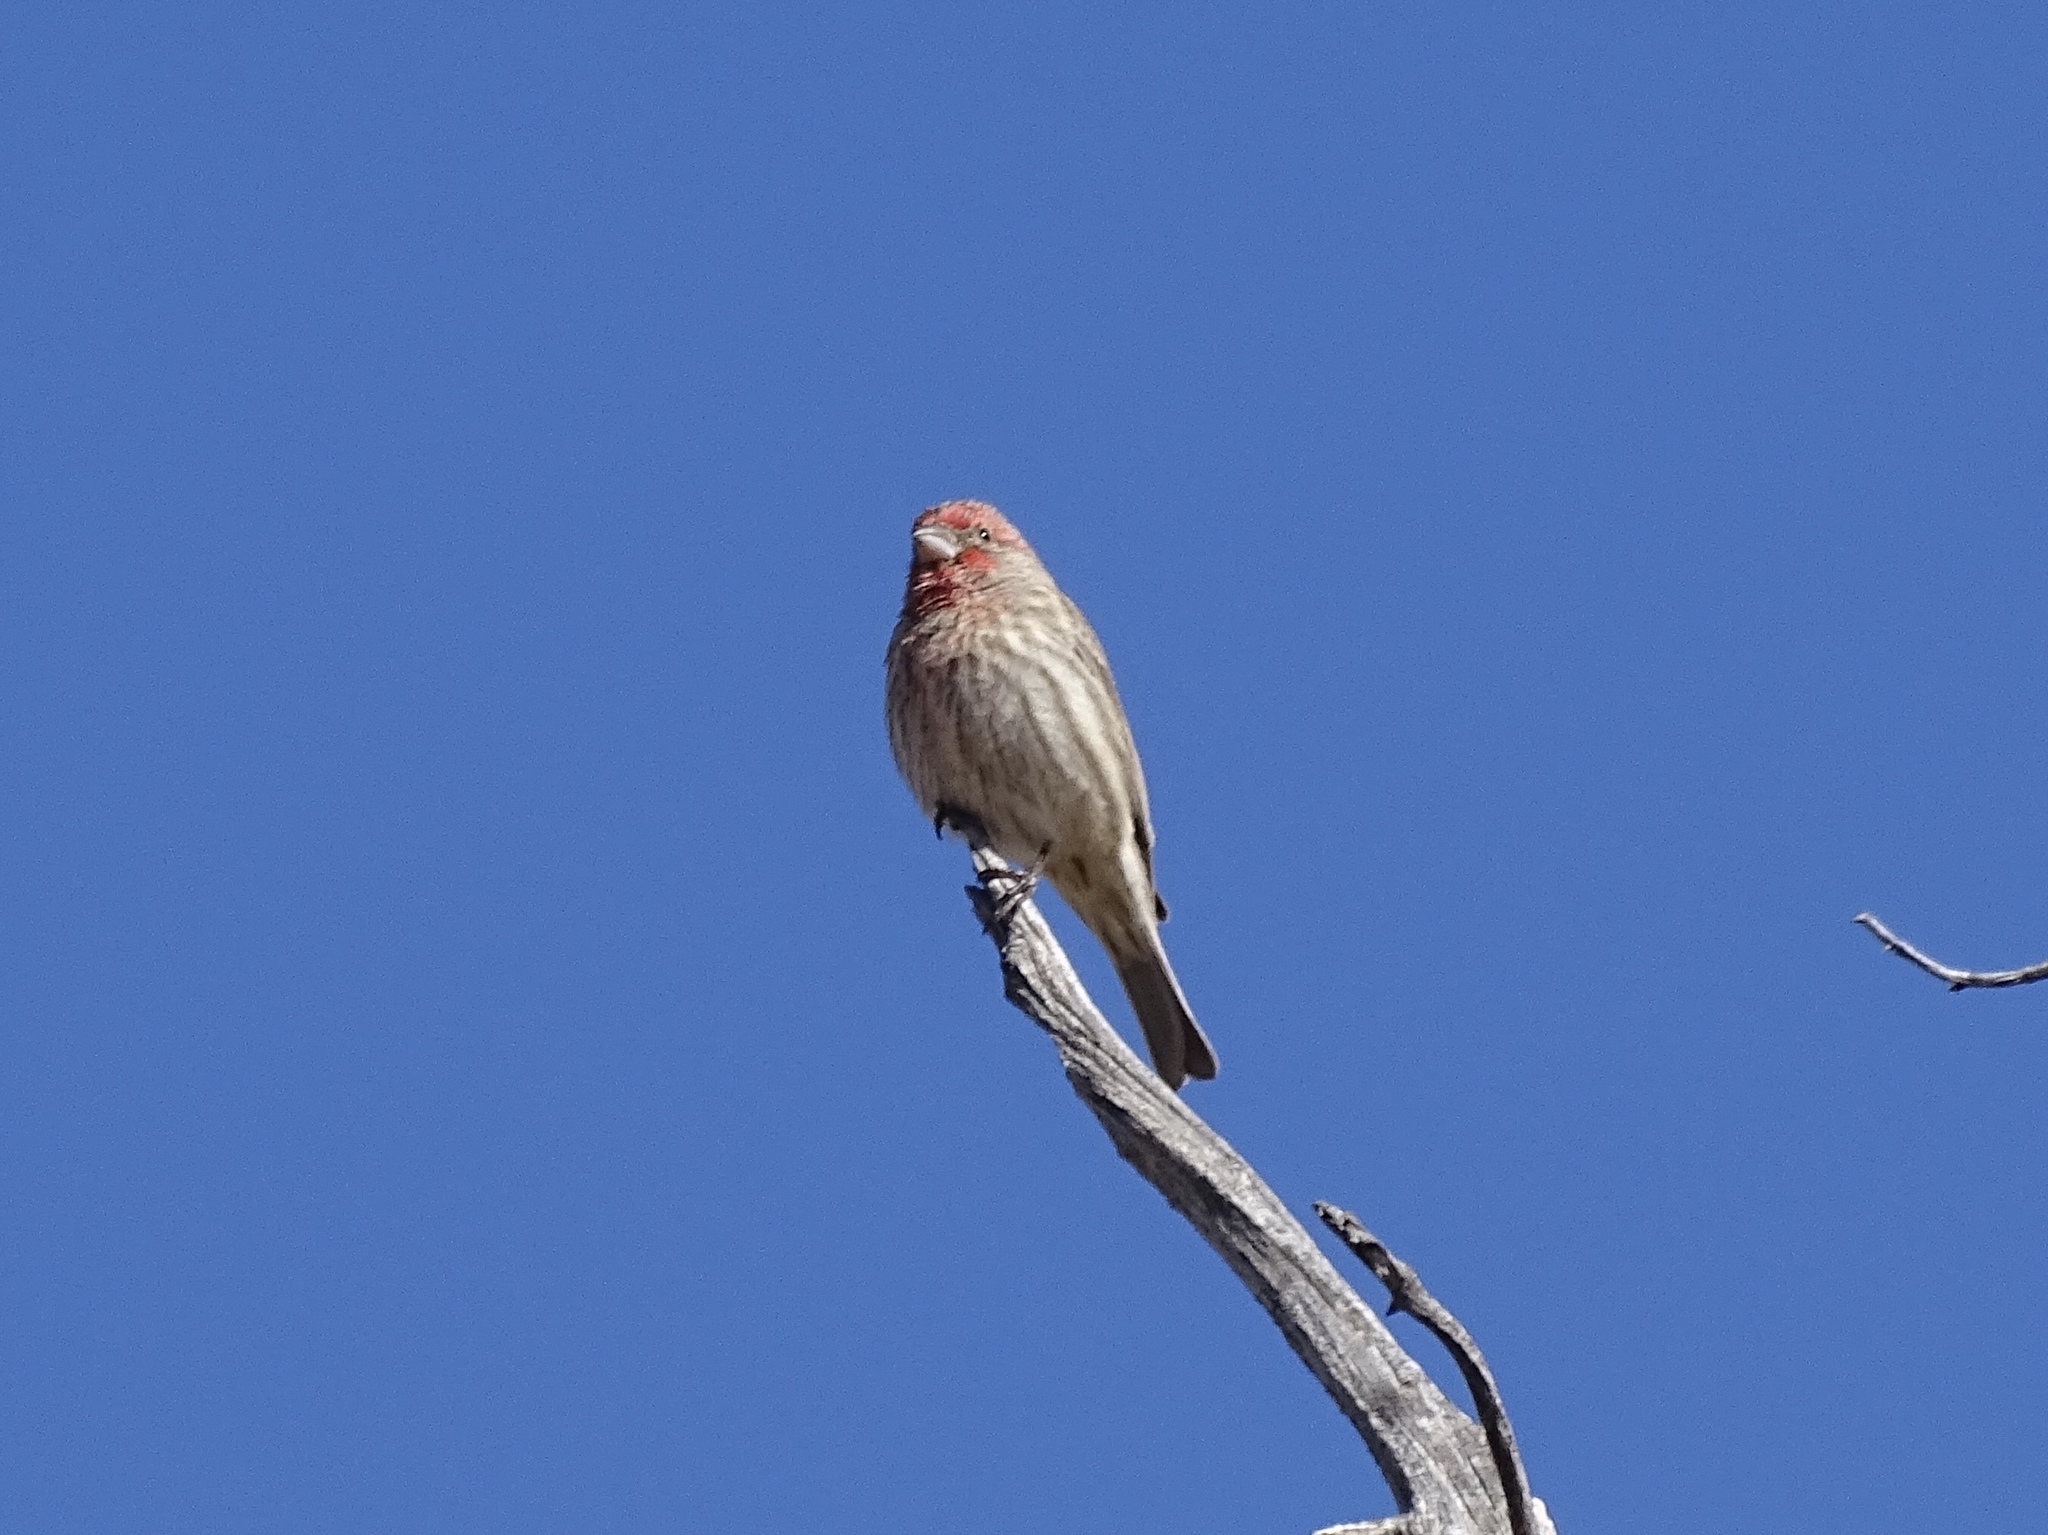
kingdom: Animalia
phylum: Chordata
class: Aves
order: Passeriformes
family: Fringillidae
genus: Haemorhous
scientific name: Haemorhous mexicanus
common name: House finch
